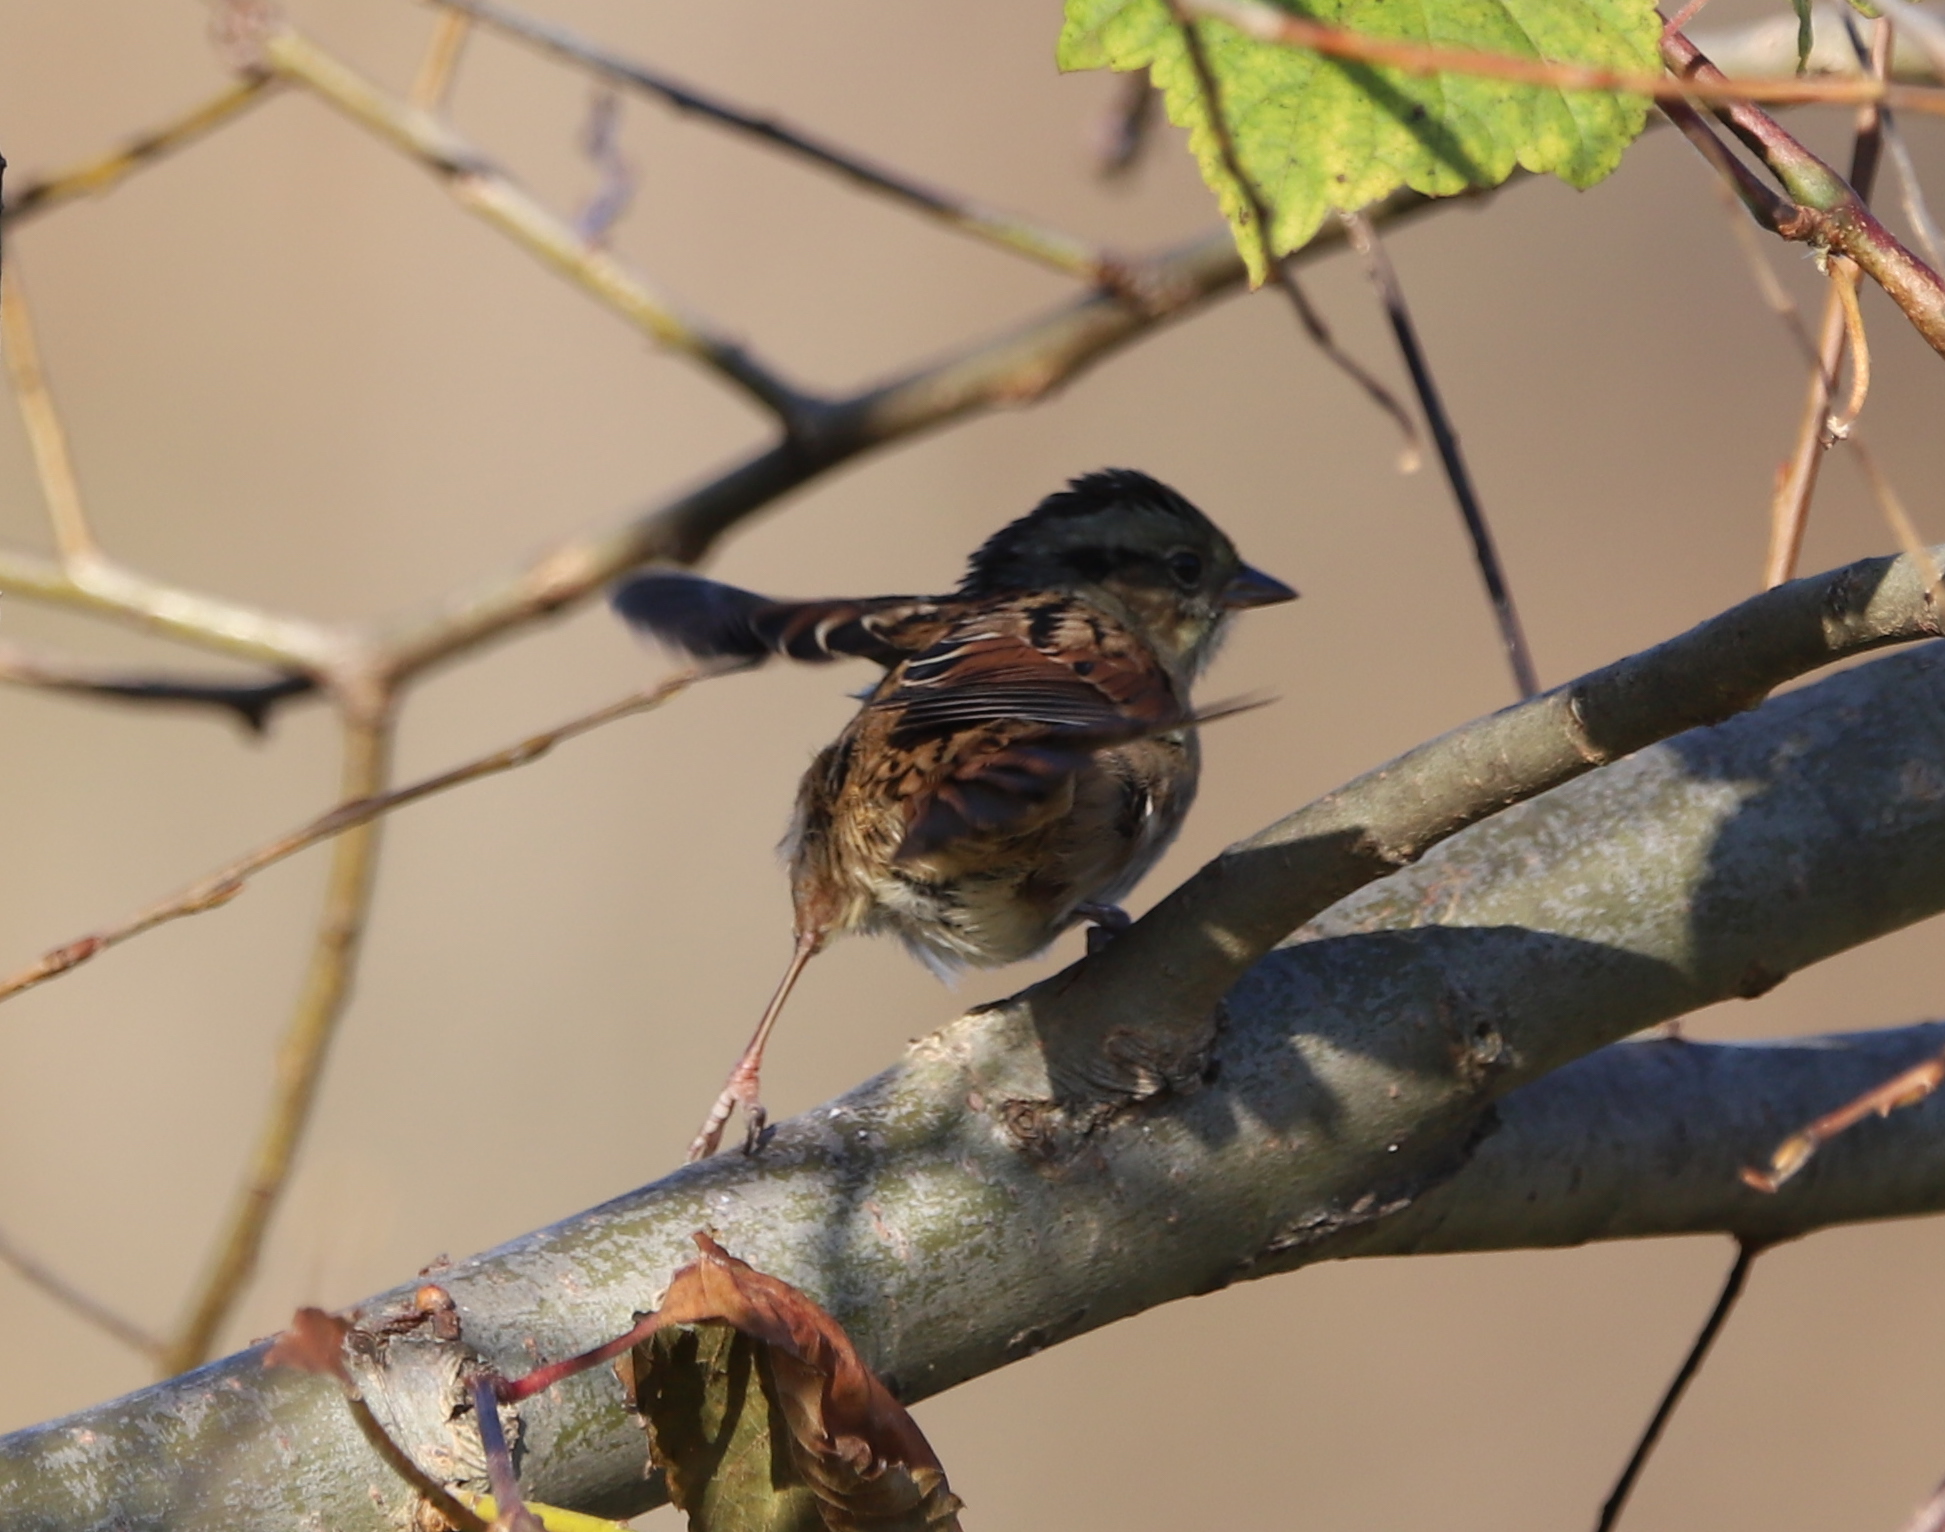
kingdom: Animalia
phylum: Chordata
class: Aves
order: Passeriformes
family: Passerellidae
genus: Melospiza
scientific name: Melospiza georgiana
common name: Swamp sparrow
